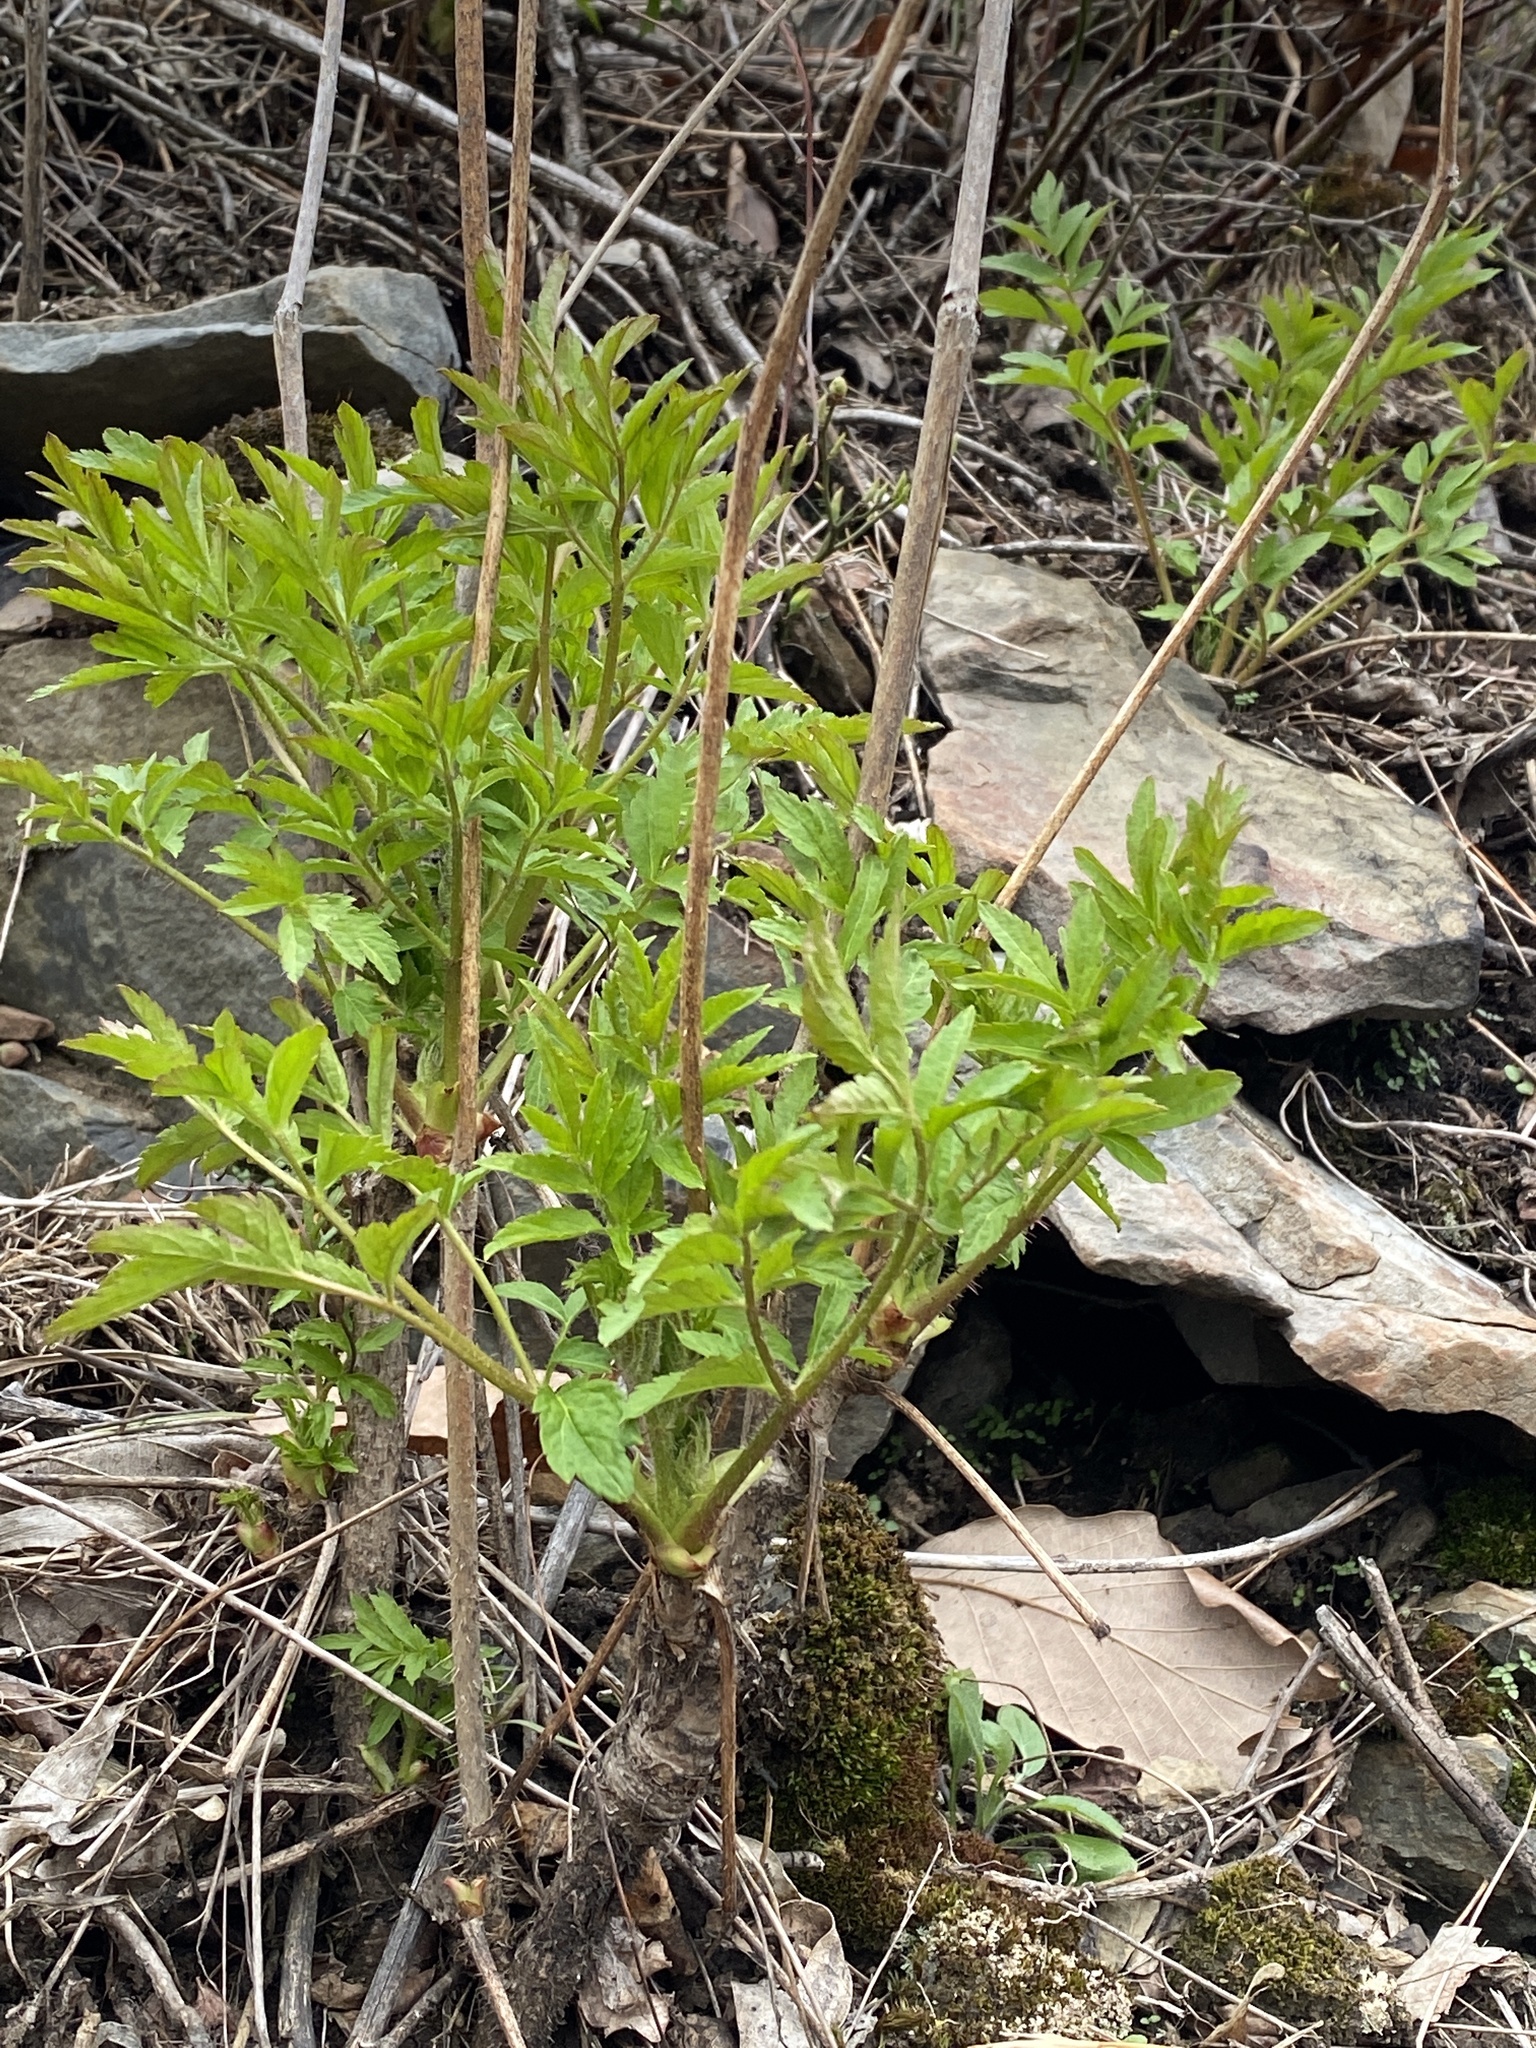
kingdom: Plantae
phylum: Tracheophyta
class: Magnoliopsida
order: Apiales
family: Araliaceae
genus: Aralia
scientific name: Aralia hispida
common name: Bristly sarsaparilla
